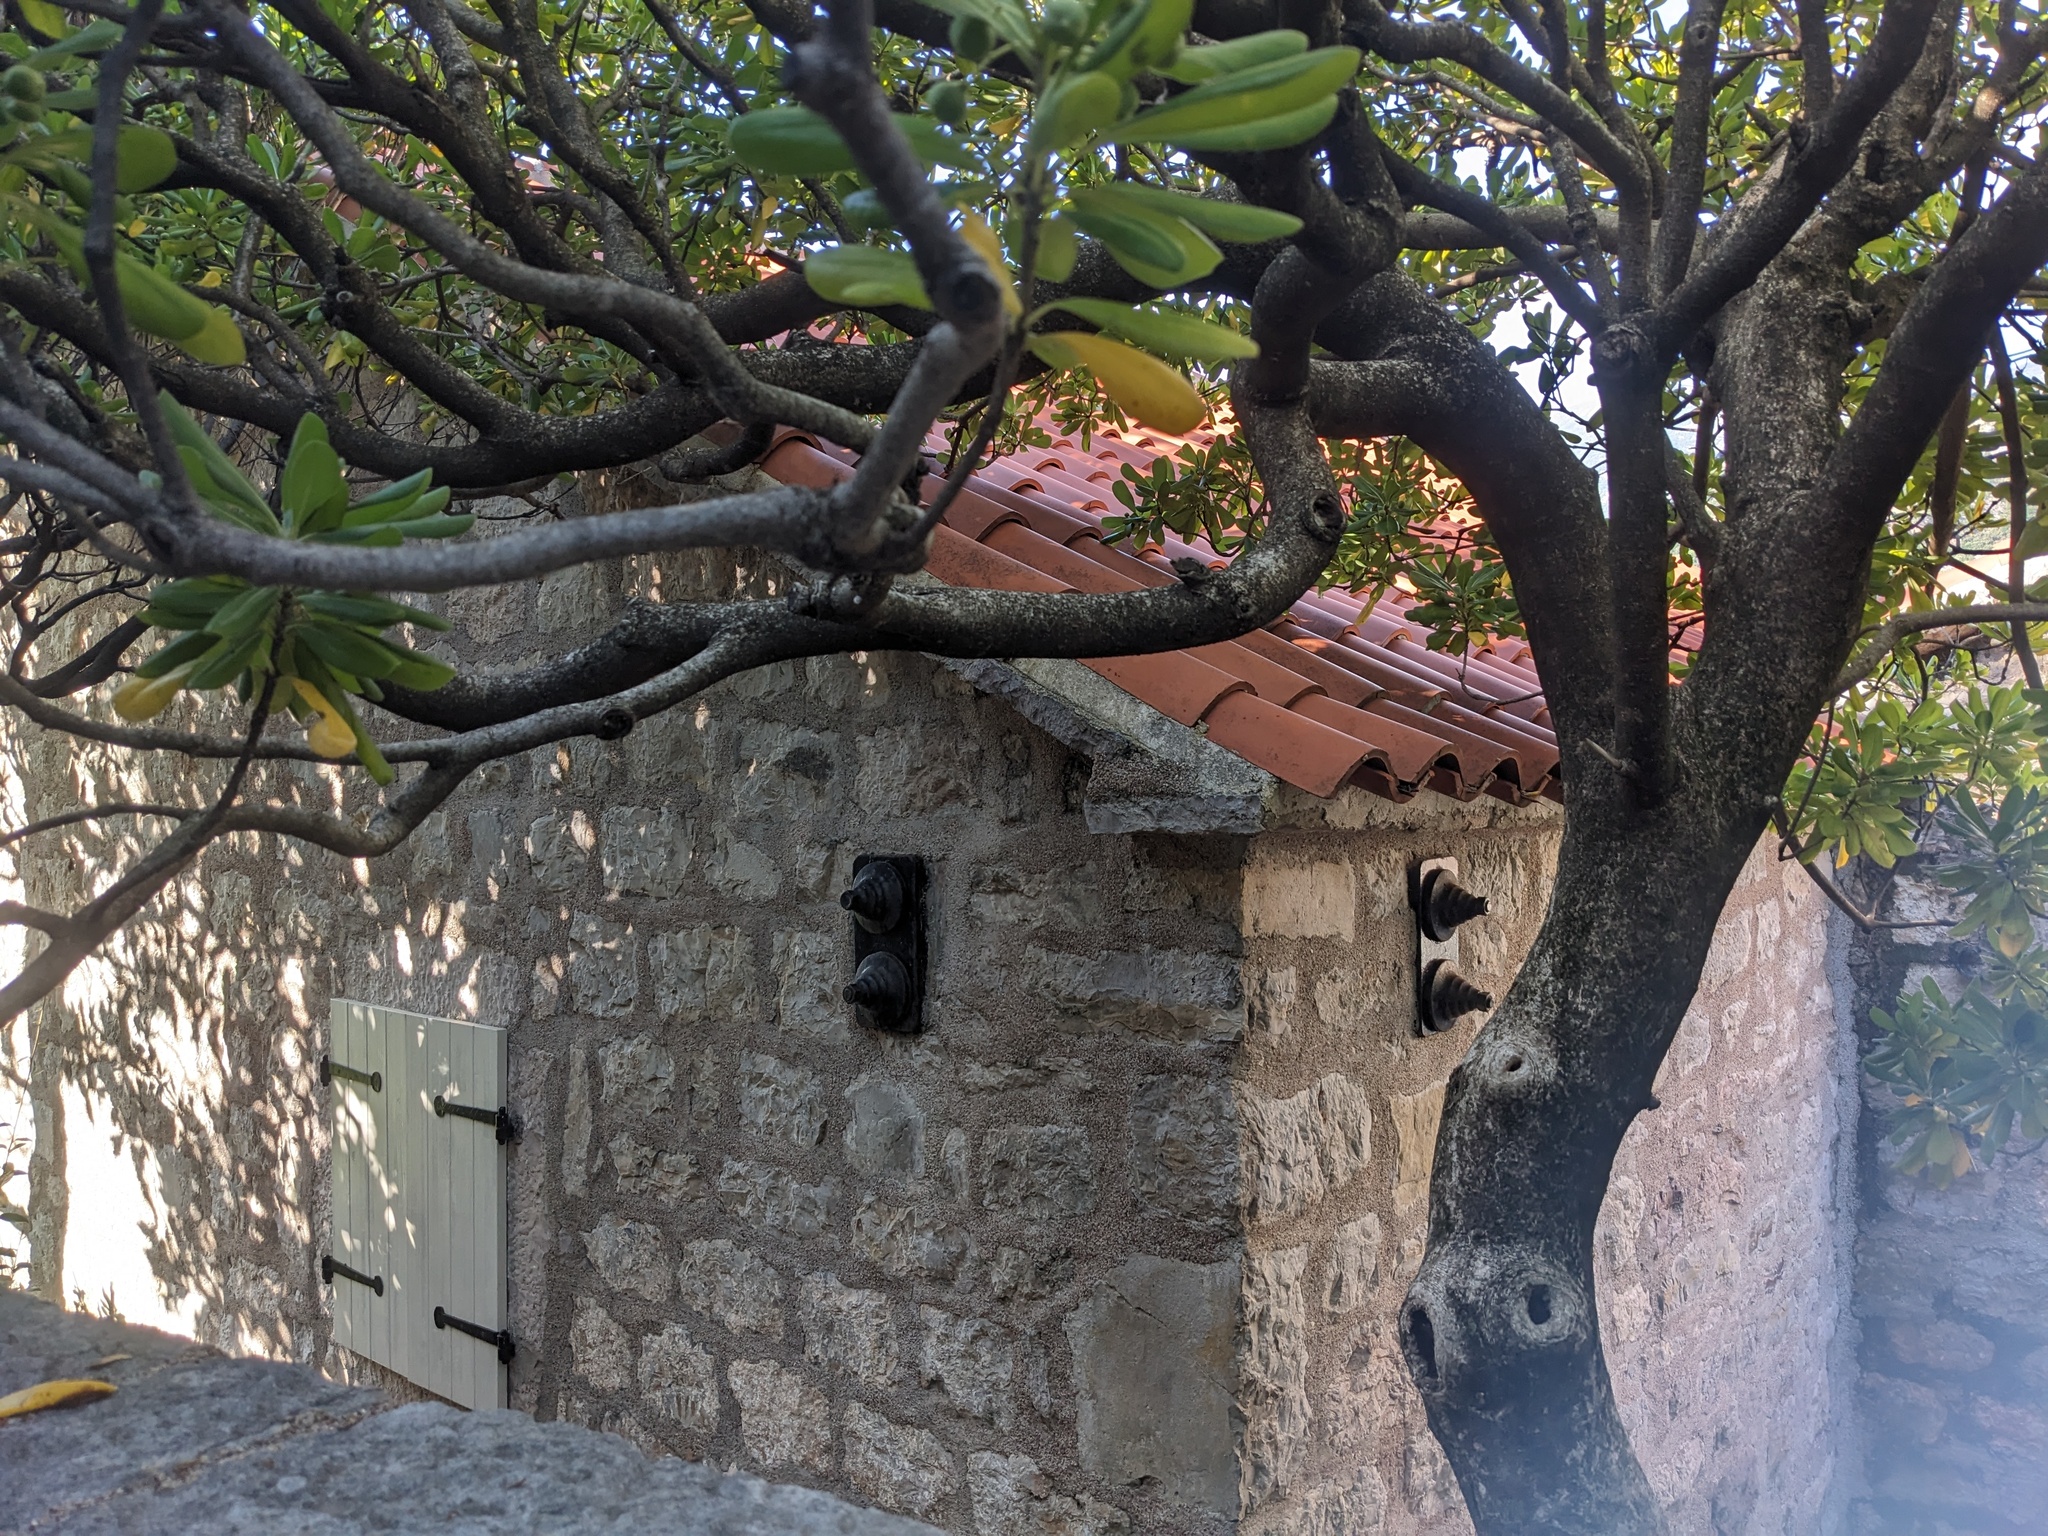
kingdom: Plantae
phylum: Tracheophyta
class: Magnoliopsida
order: Apiales
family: Pittosporaceae
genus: Pittosporum
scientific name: Pittosporum tobira
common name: Japanese cheesewood
